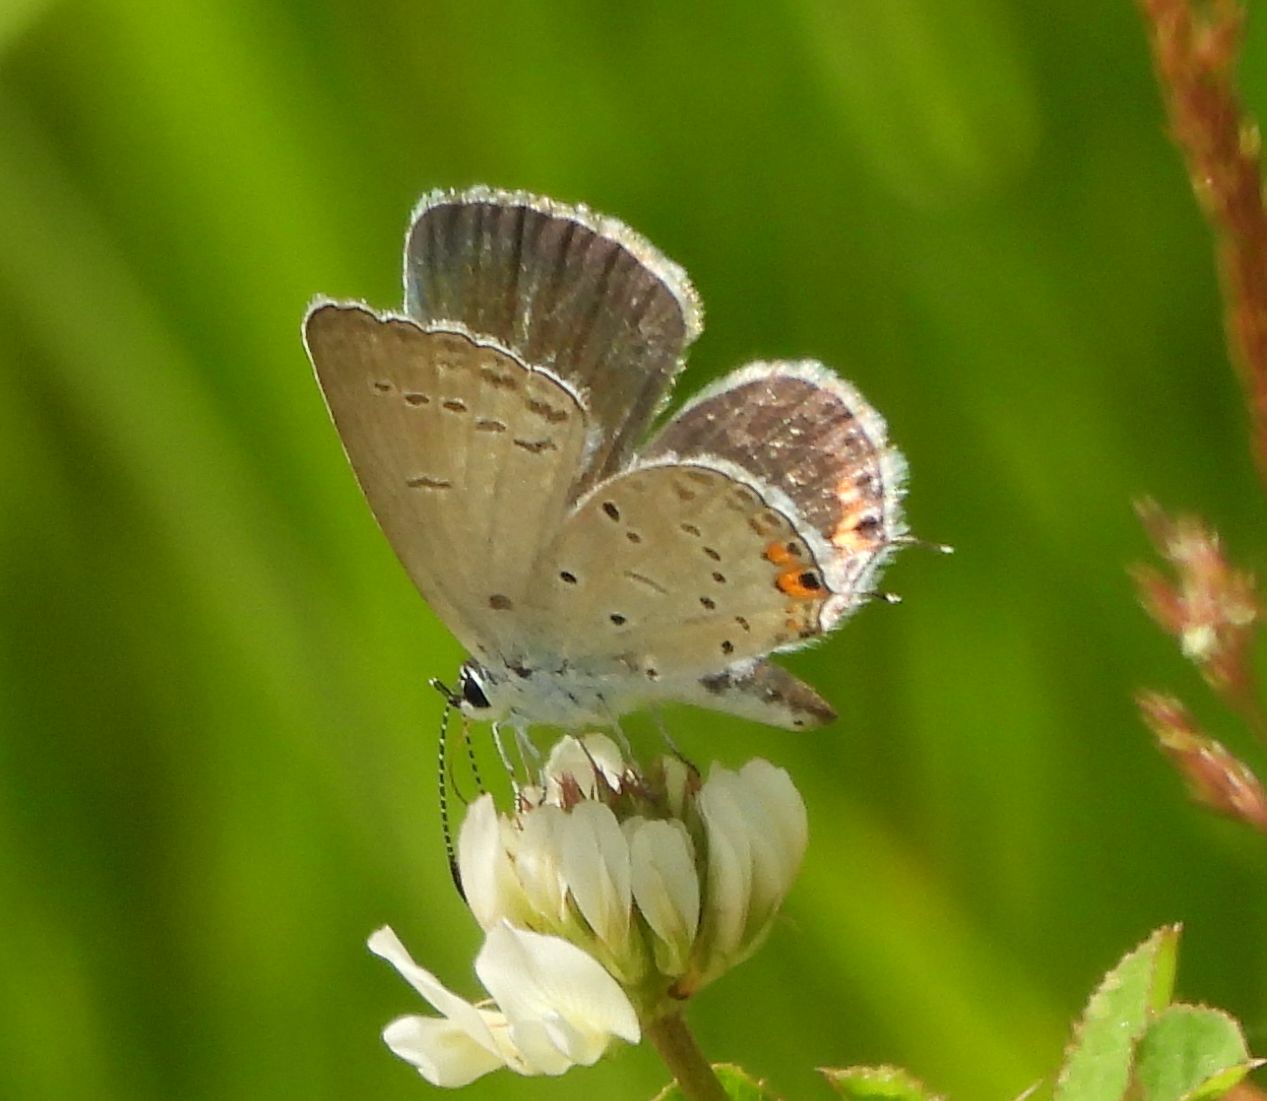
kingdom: Animalia
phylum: Arthropoda
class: Insecta
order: Lepidoptera
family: Lycaenidae
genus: Elkalyce
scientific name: Elkalyce comyntas
